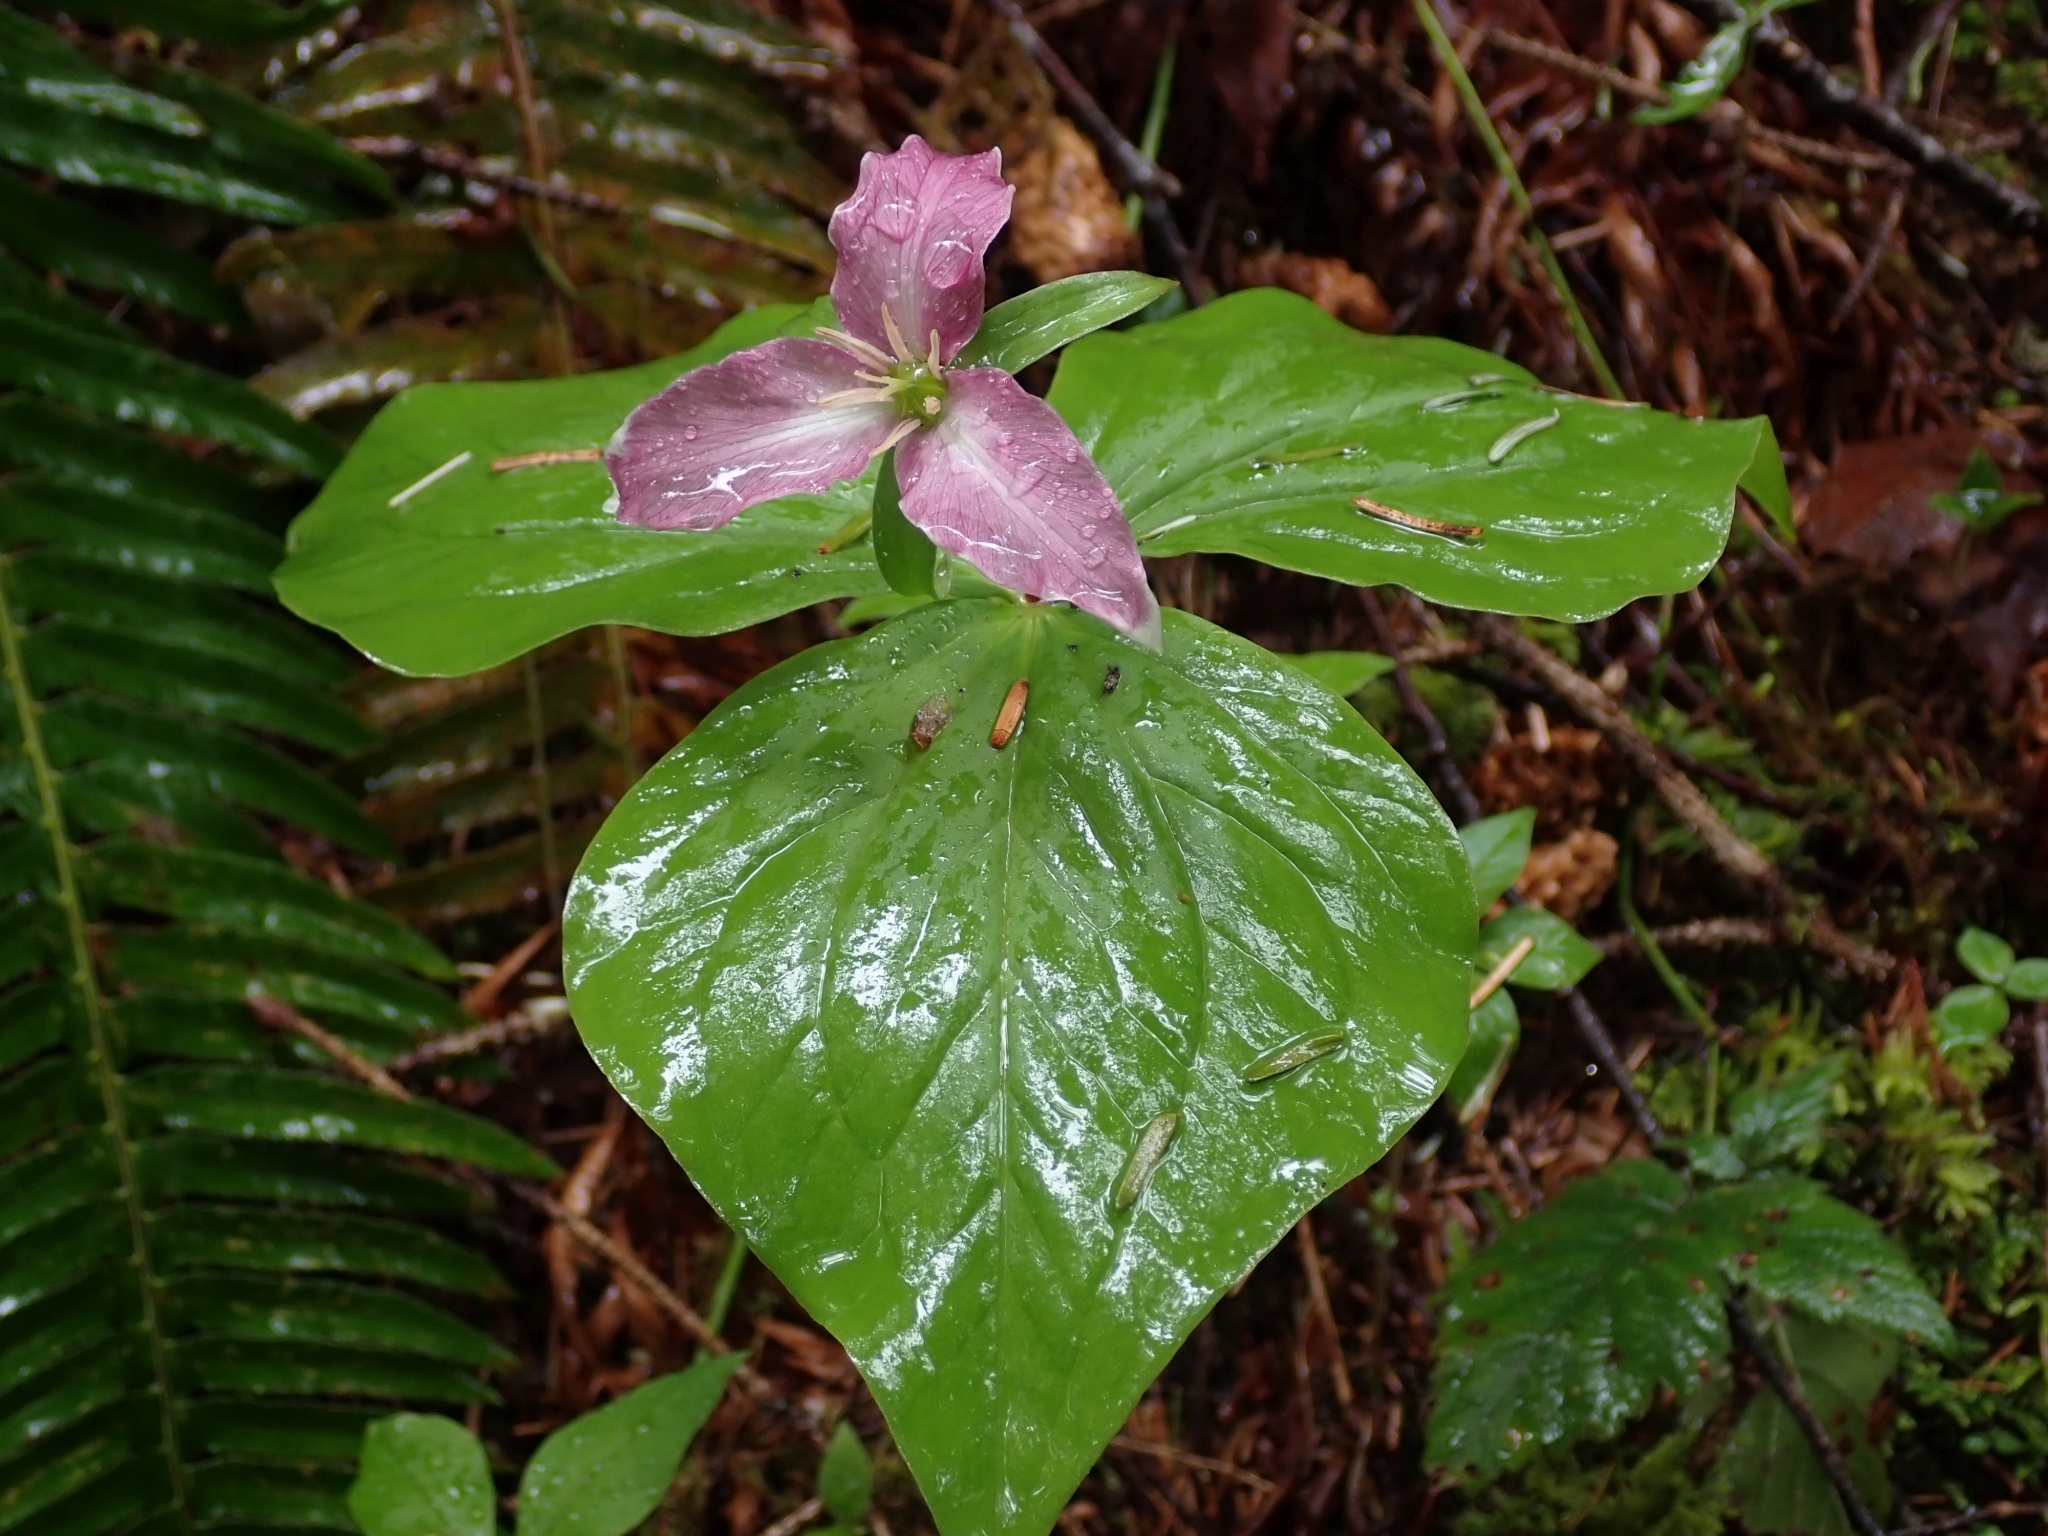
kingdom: Plantae
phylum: Tracheophyta
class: Liliopsida
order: Liliales
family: Melanthiaceae
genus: Trillium
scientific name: Trillium ovatum
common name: Pacific trillium
